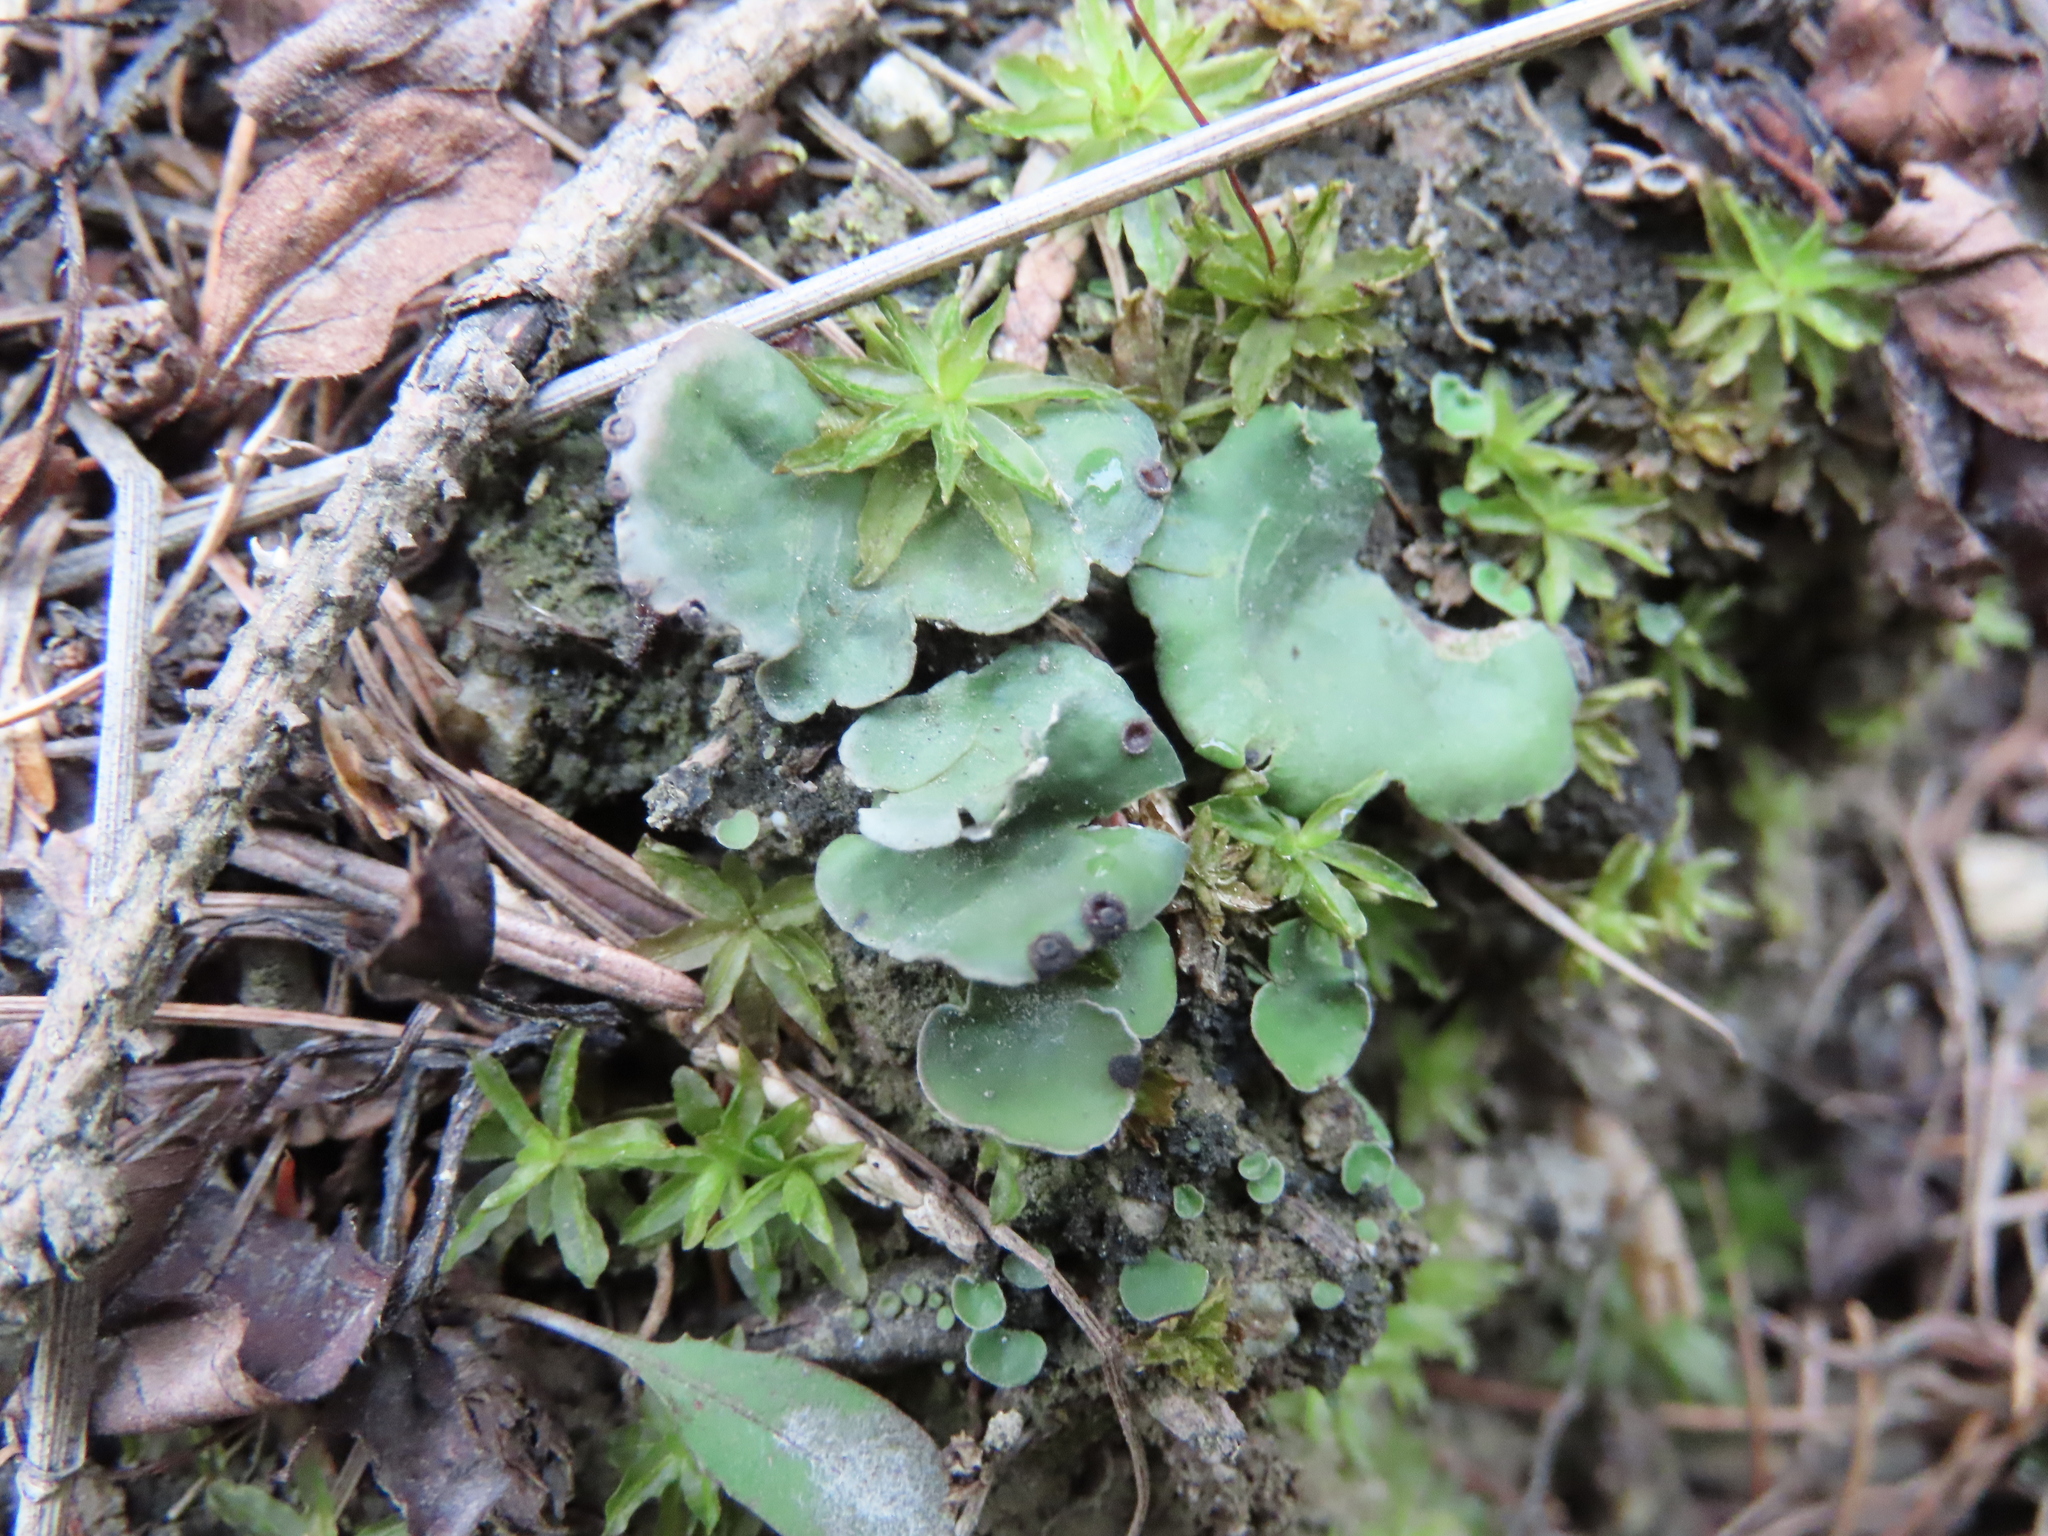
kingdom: Fungi
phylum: Ascomycota
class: Lecanoromycetes
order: Peltigerales
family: Peltigeraceae
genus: Peltigera
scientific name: Peltigera venosa
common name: Pixie gowns lichen
